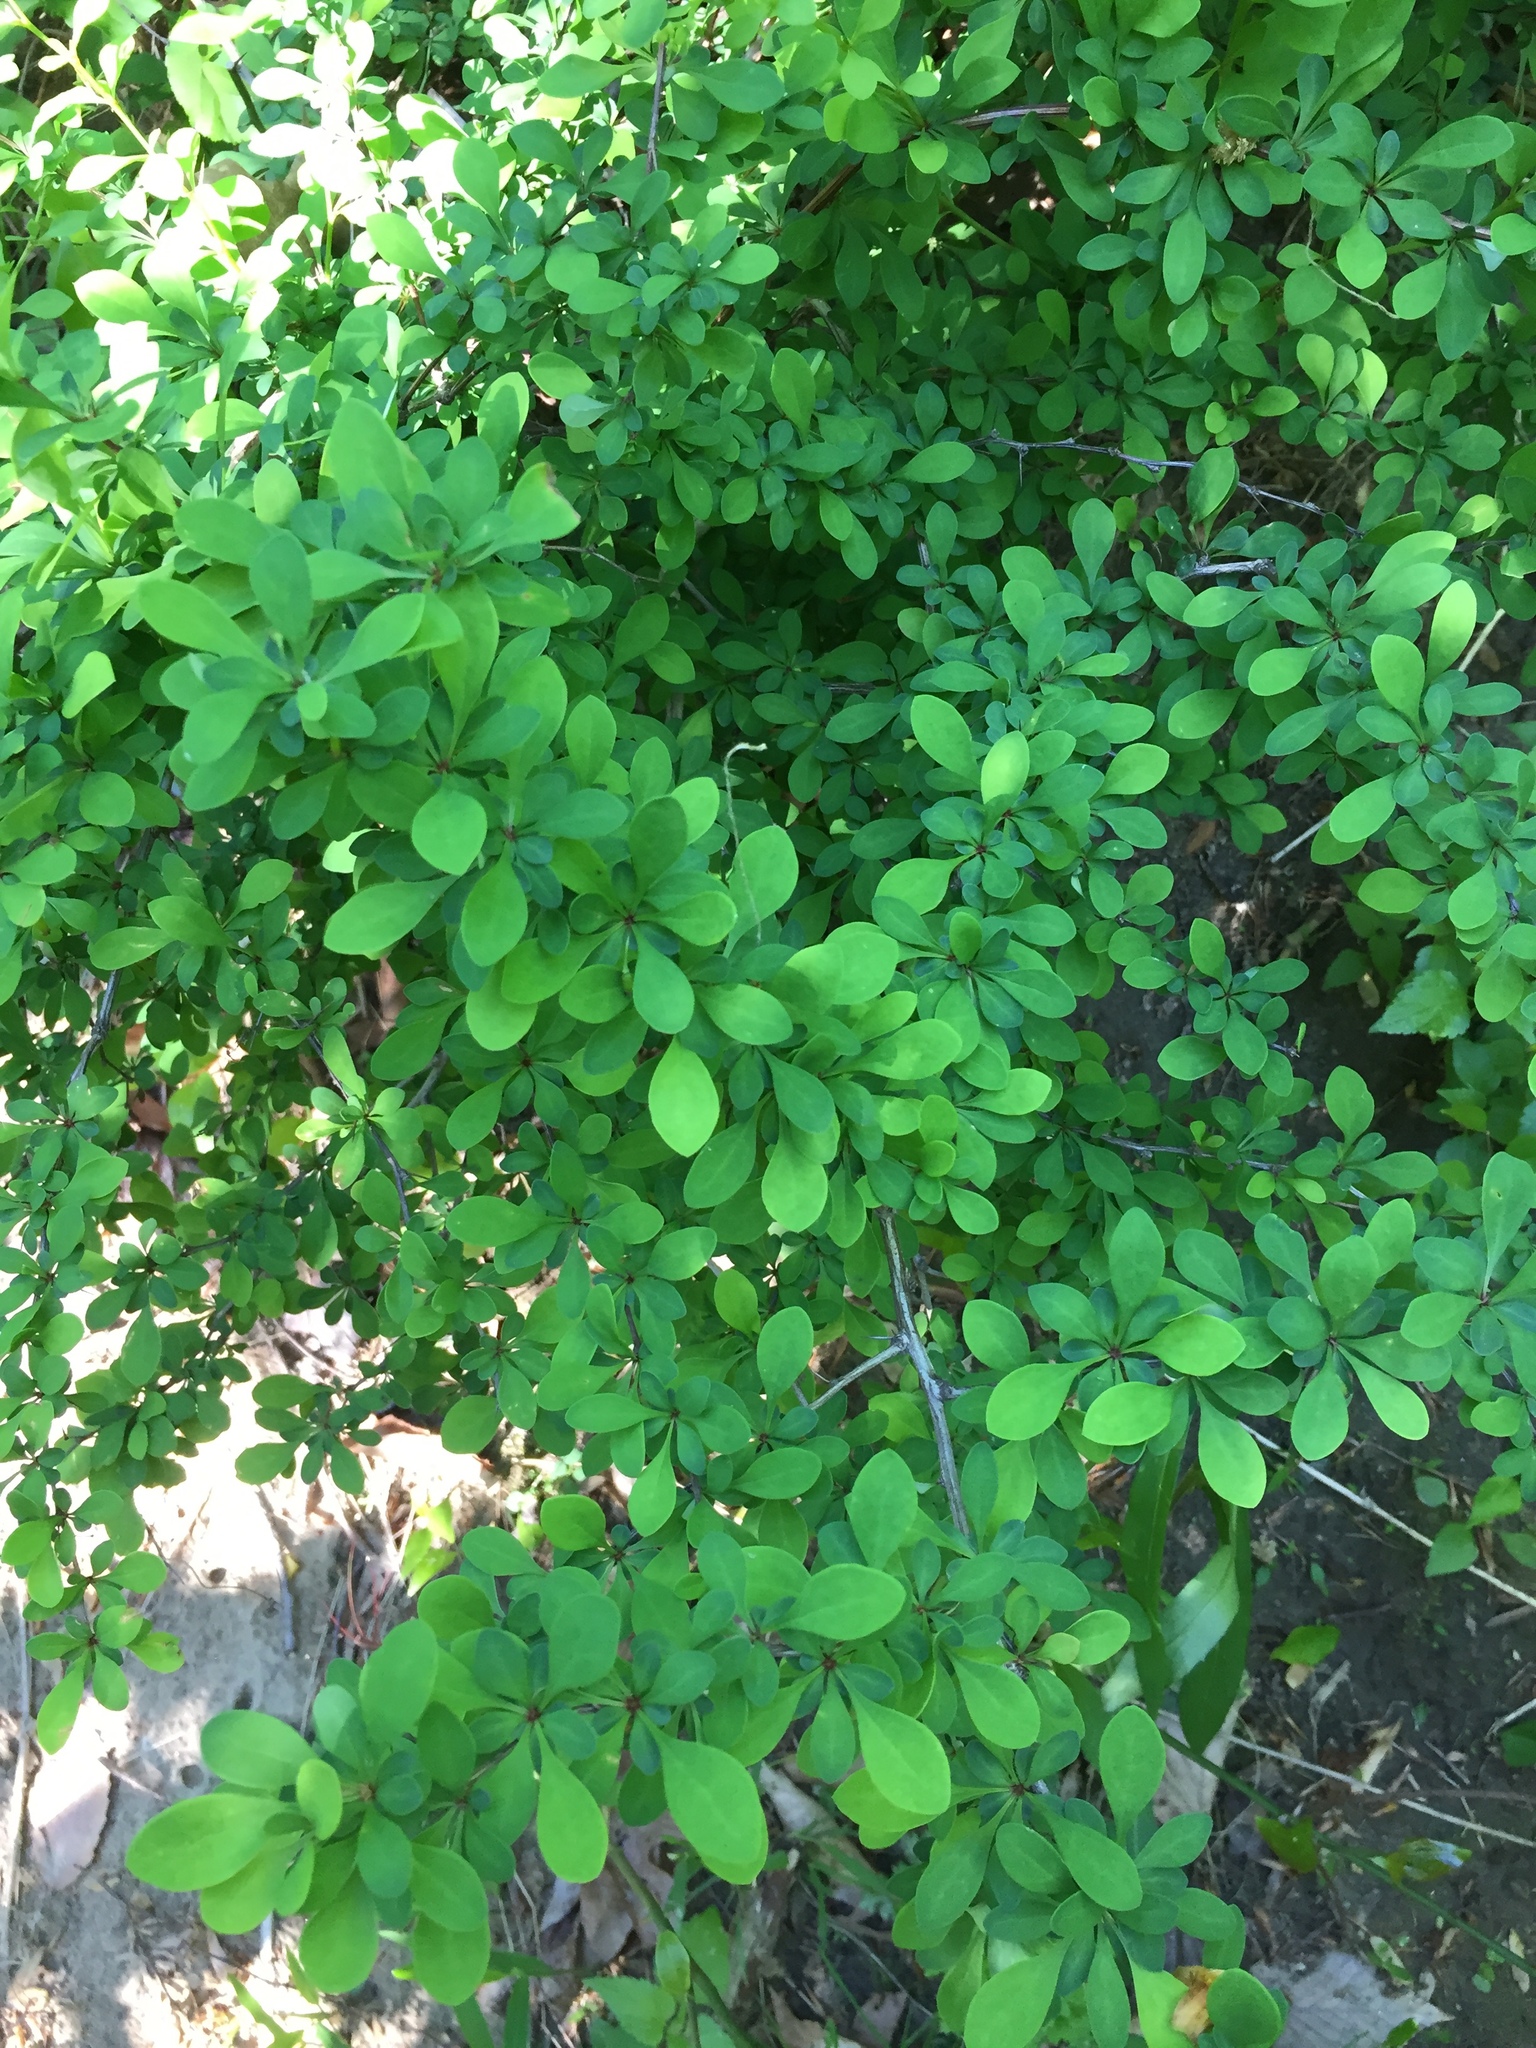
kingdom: Plantae
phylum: Tracheophyta
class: Magnoliopsida
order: Ranunculales
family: Berberidaceae
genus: Berberis
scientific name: Berberis thunbergii
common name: Japanese barberry
